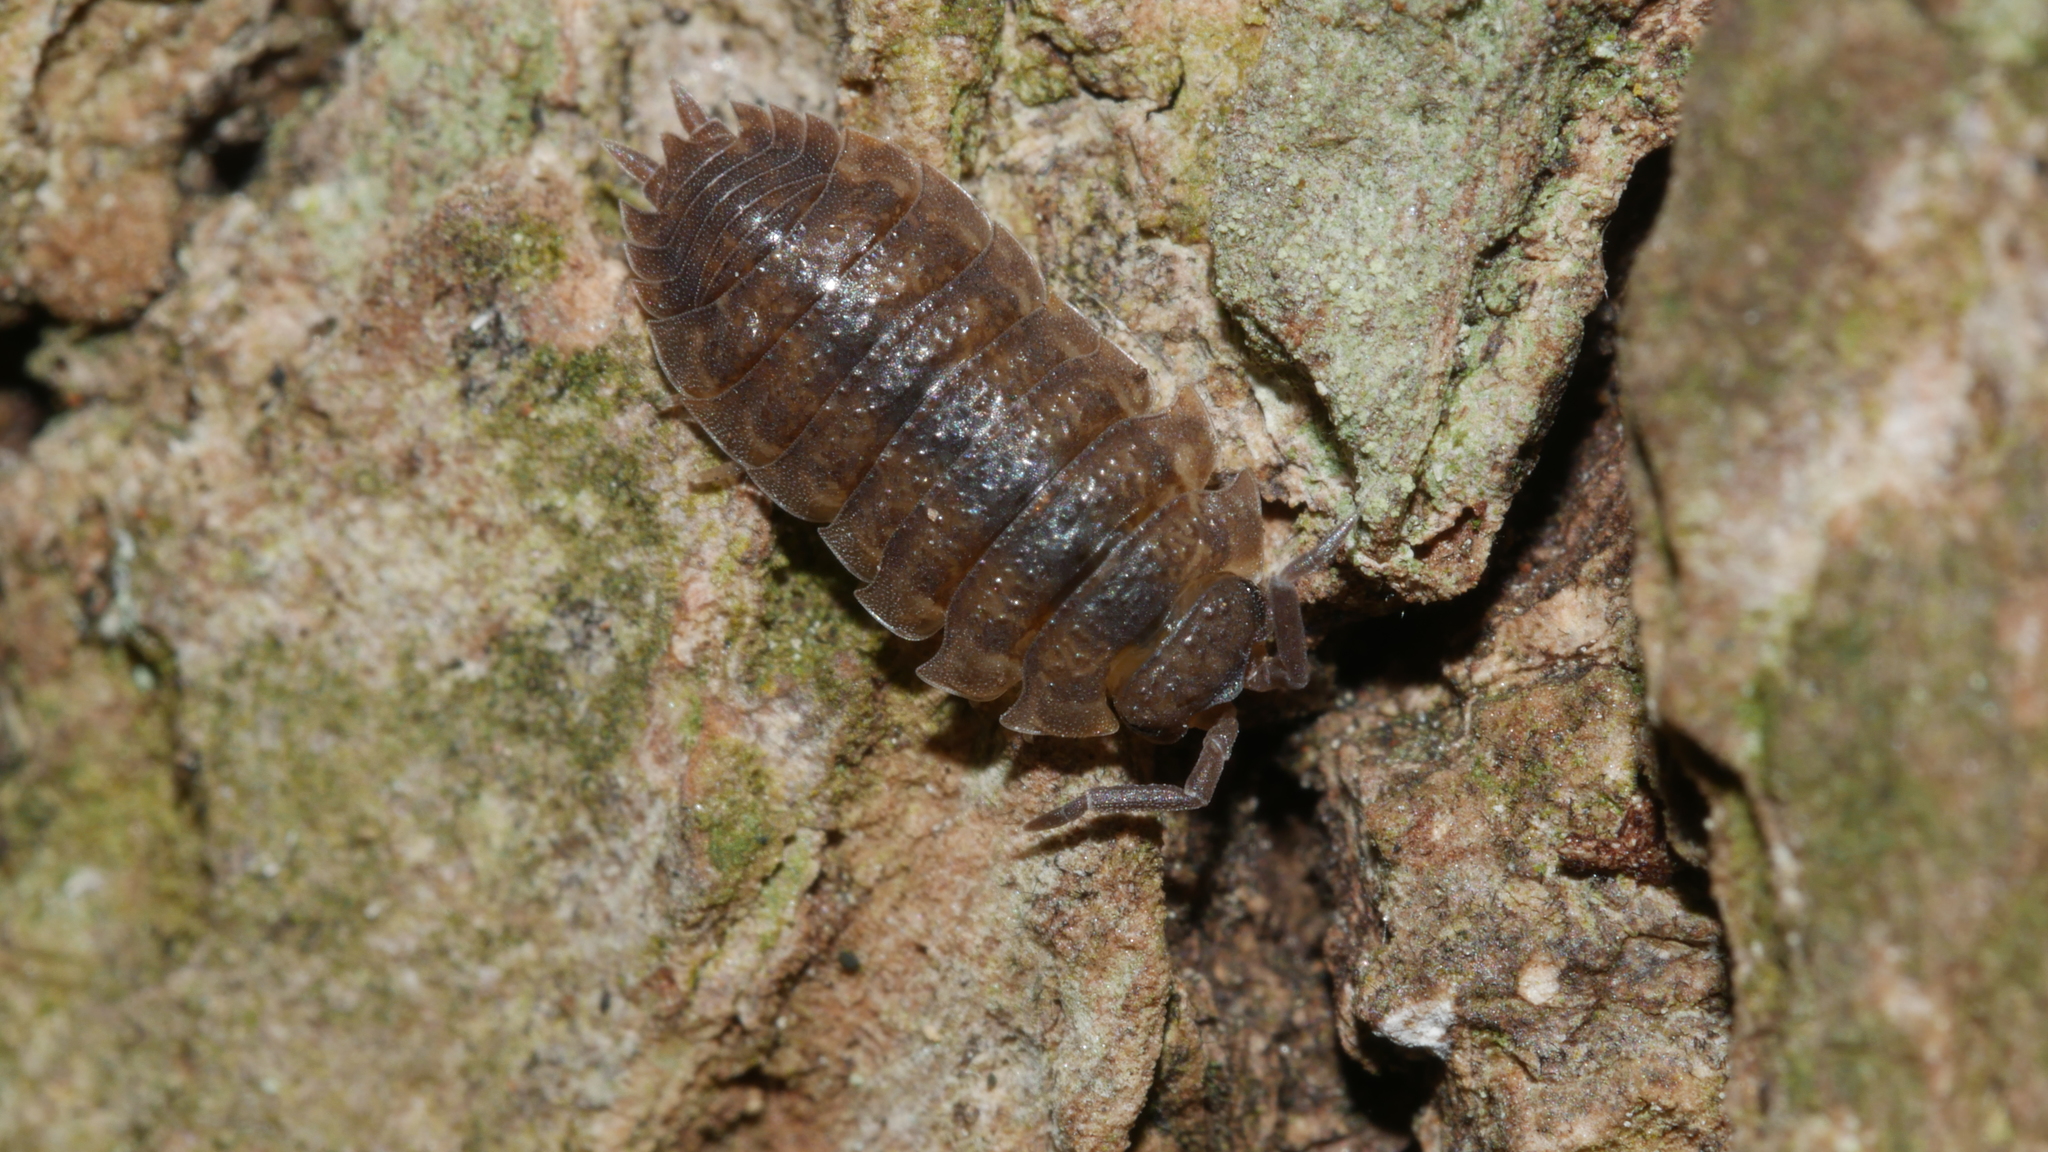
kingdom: Animalia
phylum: Arthropoda
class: Malacostraca
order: Isopoda
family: Porcellionidae
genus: Porcellio
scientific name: Porcellio scaber
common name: Common rough woodlouse
